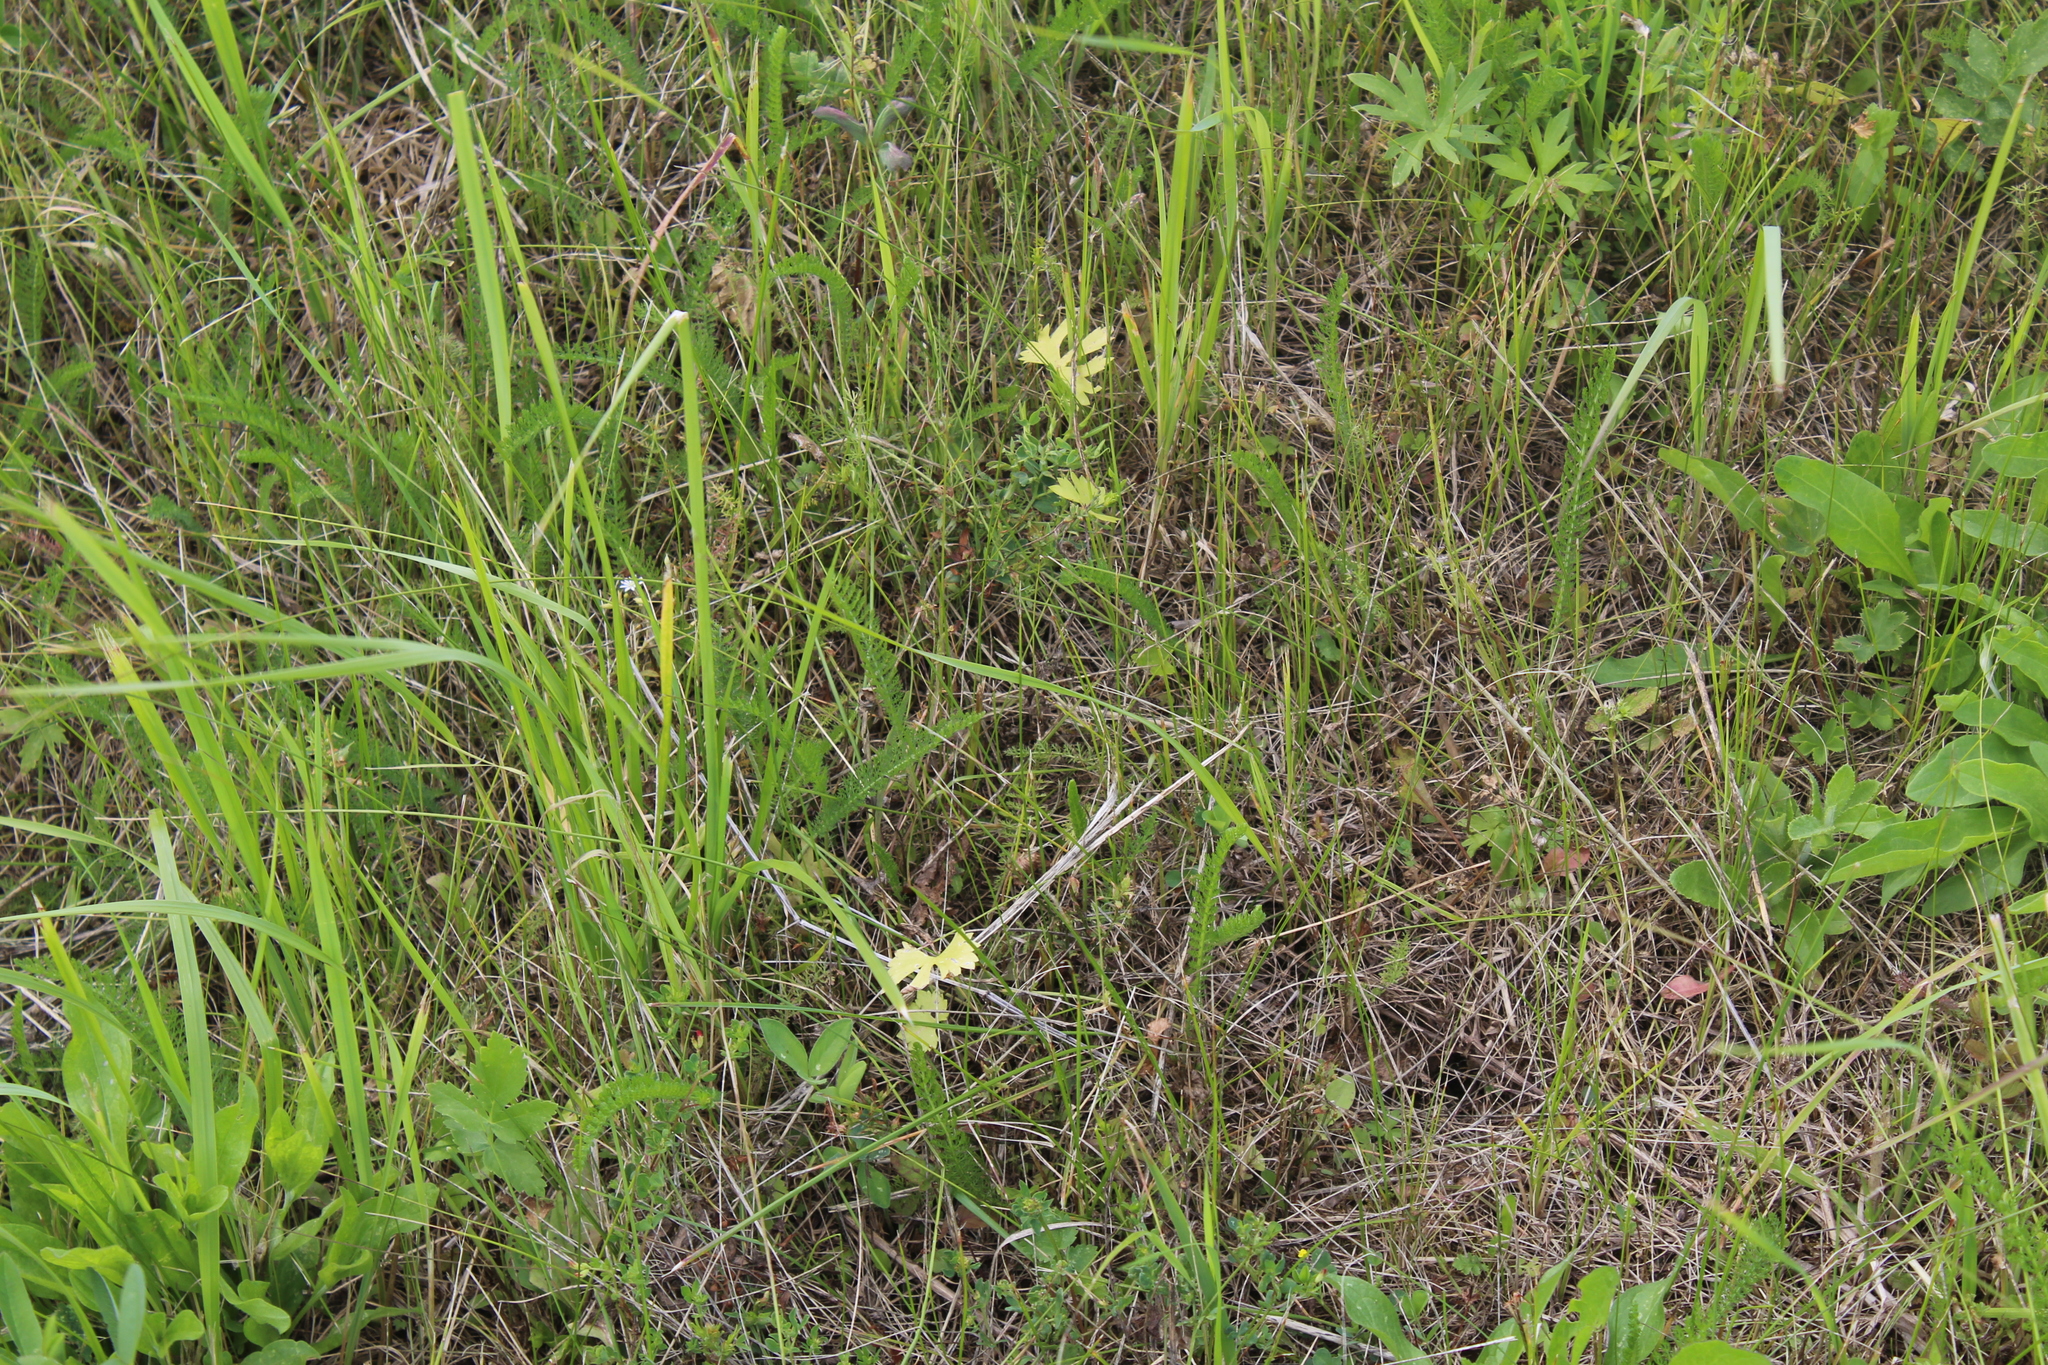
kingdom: Plantae
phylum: Tracheophyta
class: Magnoliopsida
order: Ranunculales
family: Ranunculaceae
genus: Ranunculus
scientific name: Ranunculus auricomus
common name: Goldilocks buttercup
